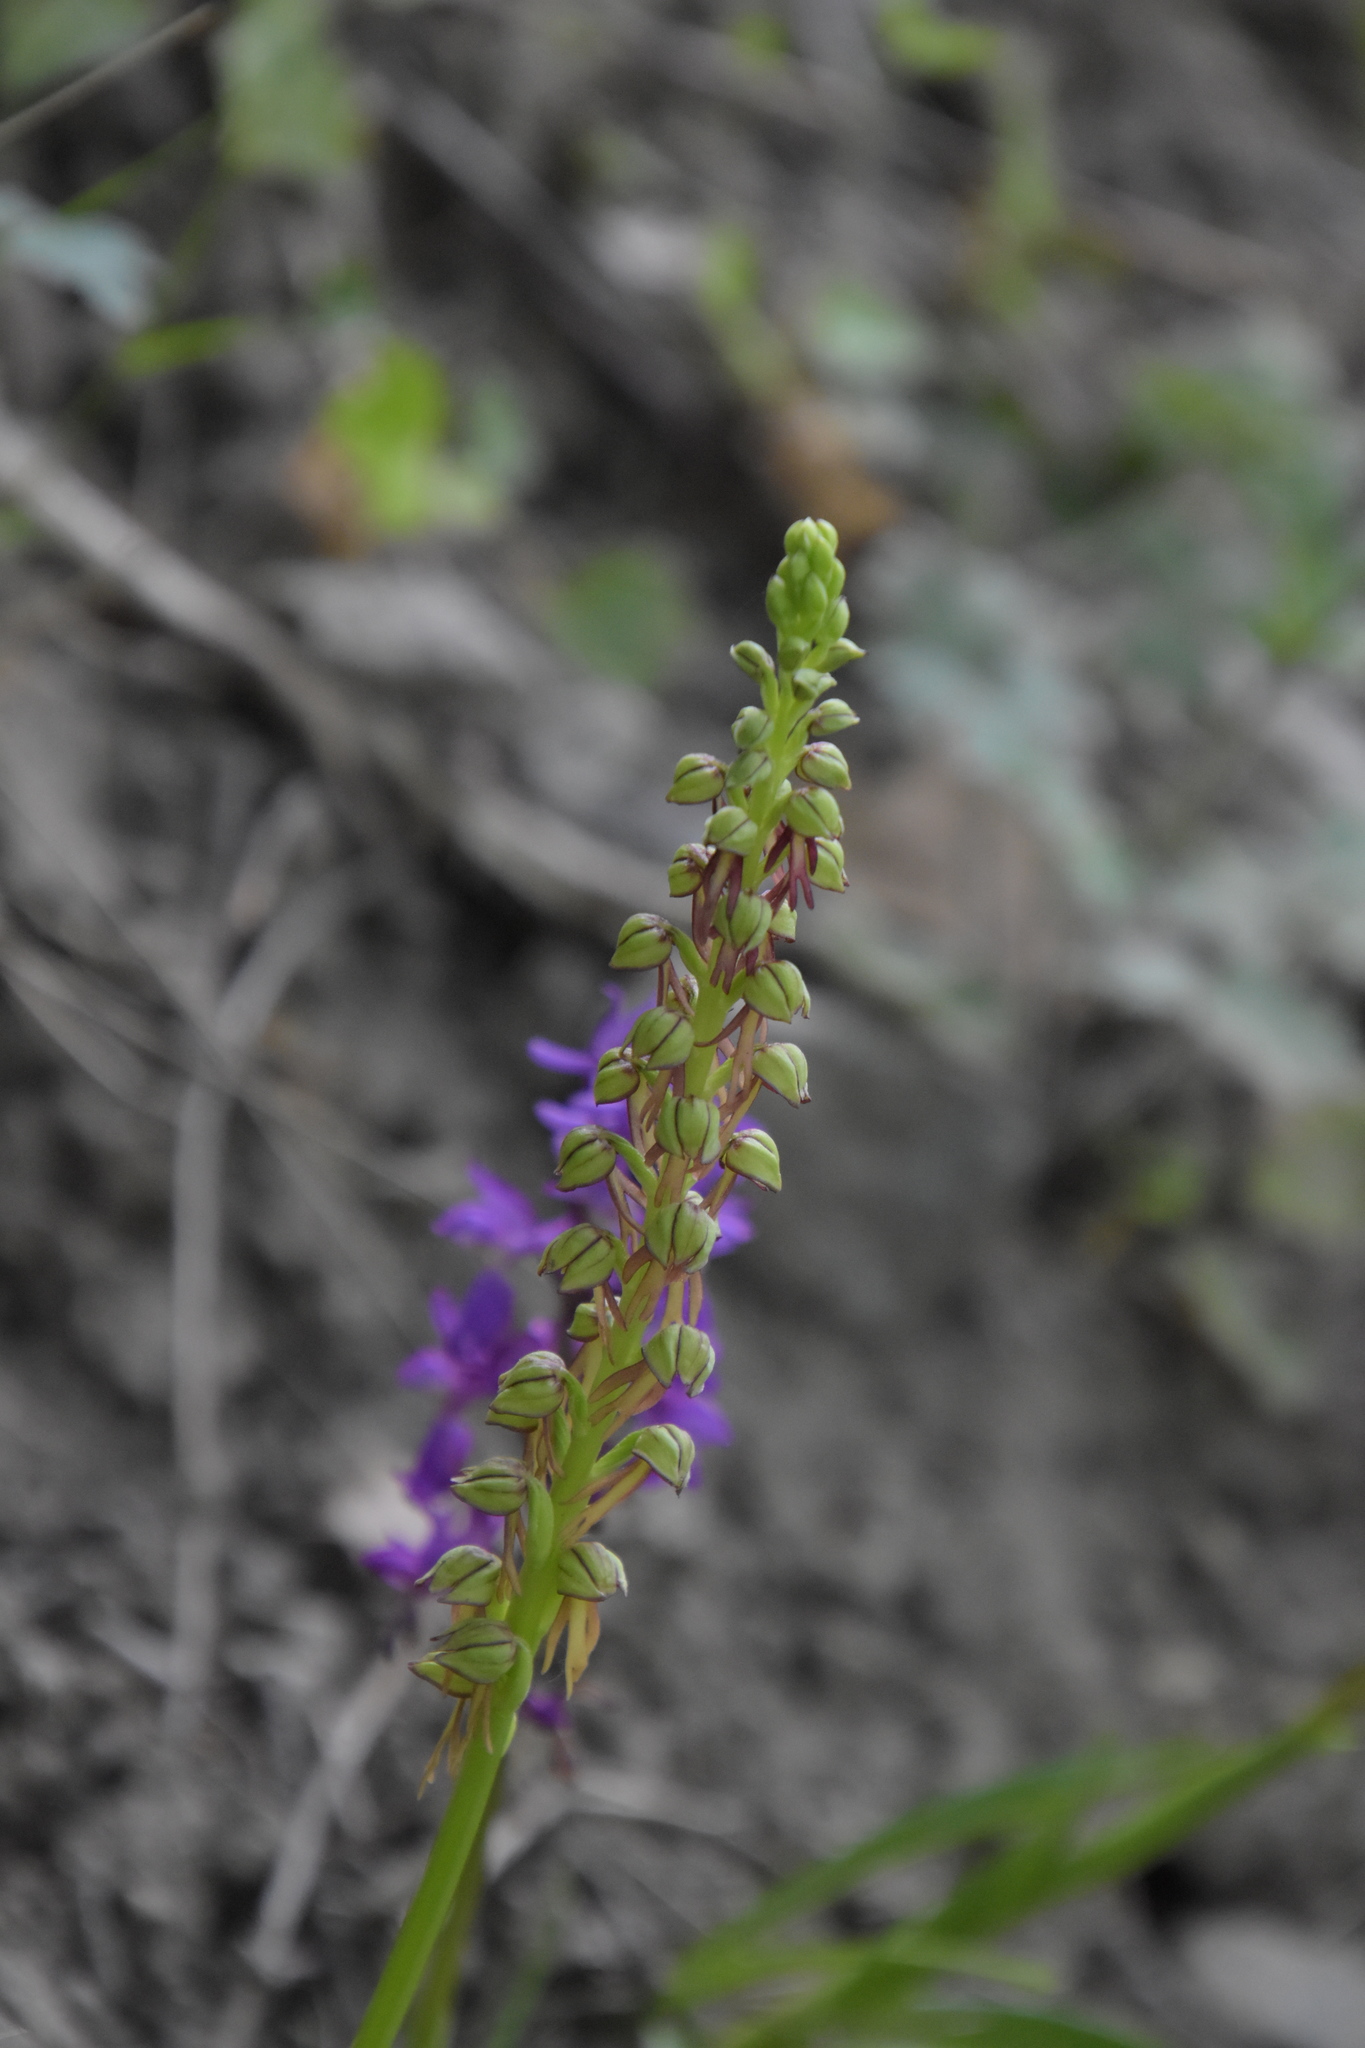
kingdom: Plantae
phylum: Tracheophyta
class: Liliopsida
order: Asparagales
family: Orchidaceae
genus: Orchis
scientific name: Orchis anthropophora
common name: Man orchid
